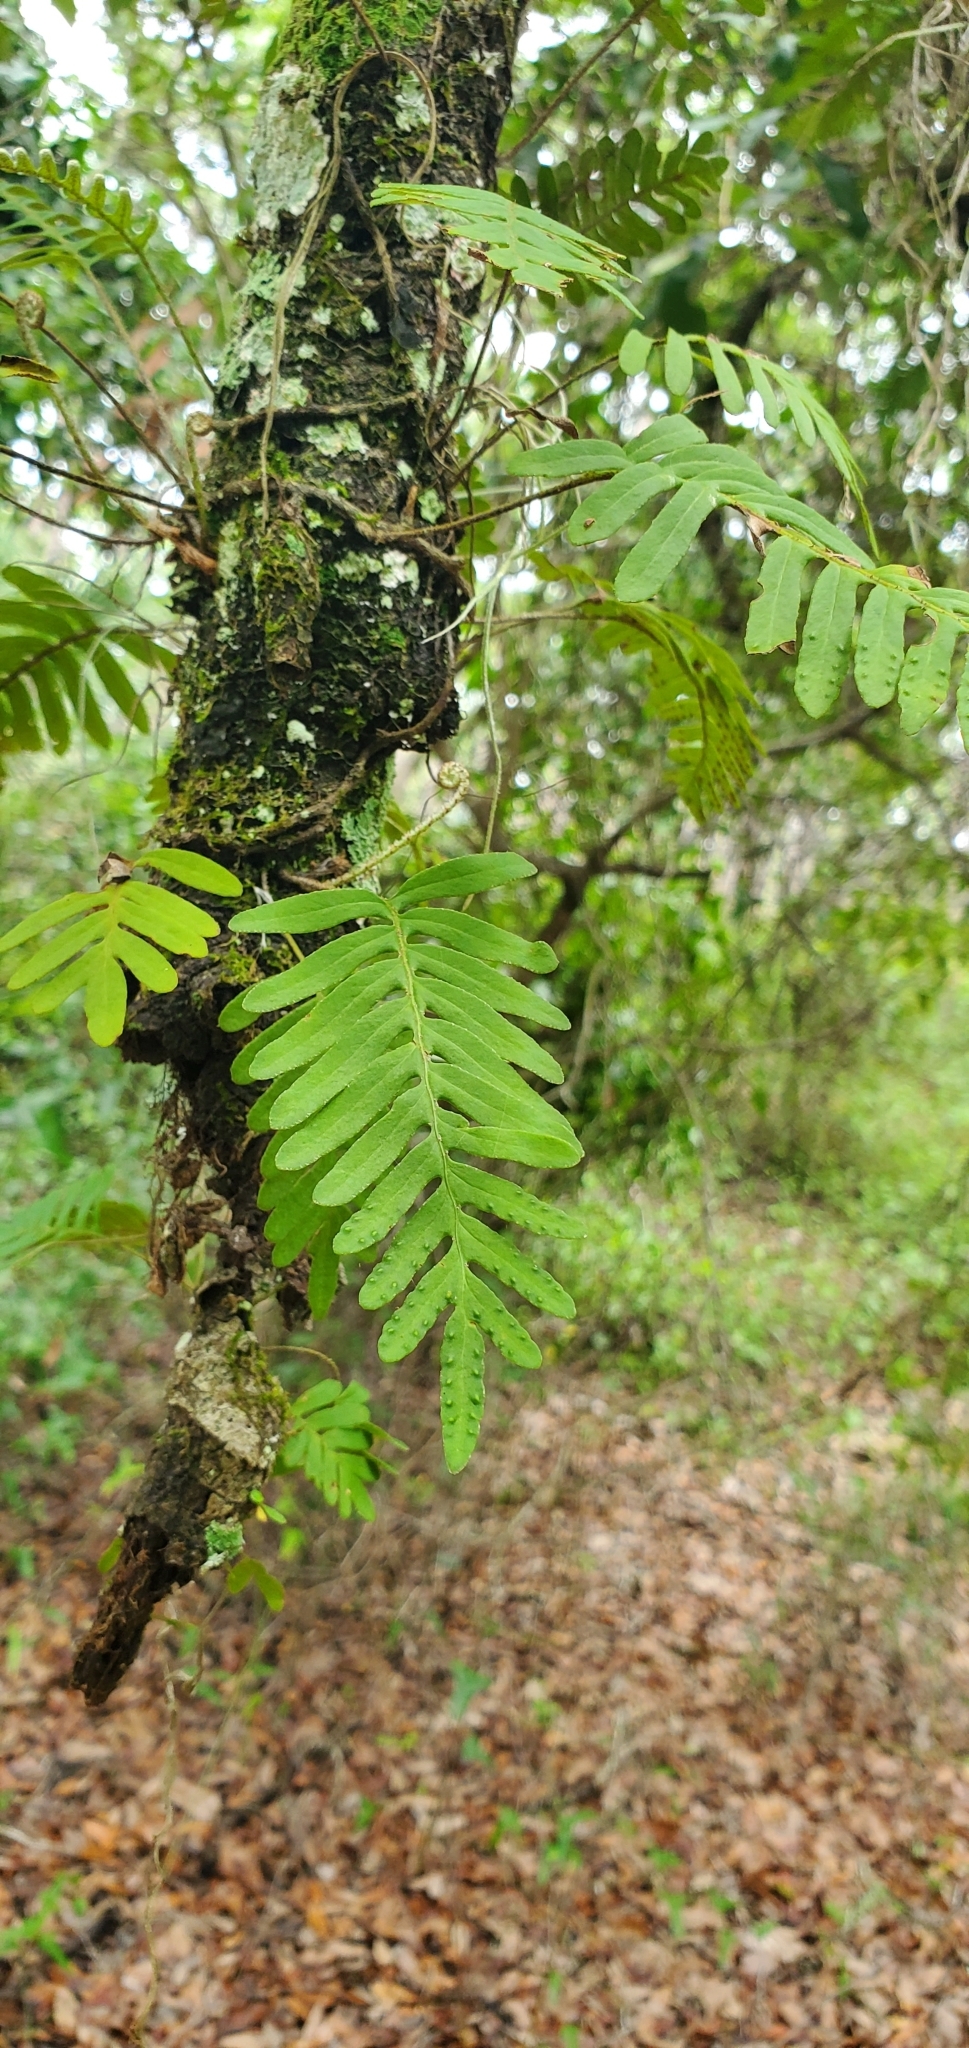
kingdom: Plantae
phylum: Tracheophyta
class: Polypodiopsida
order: Polypodiales
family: Polypodiaceae
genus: Pleopeltis
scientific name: Pleopeltis michauxiana
